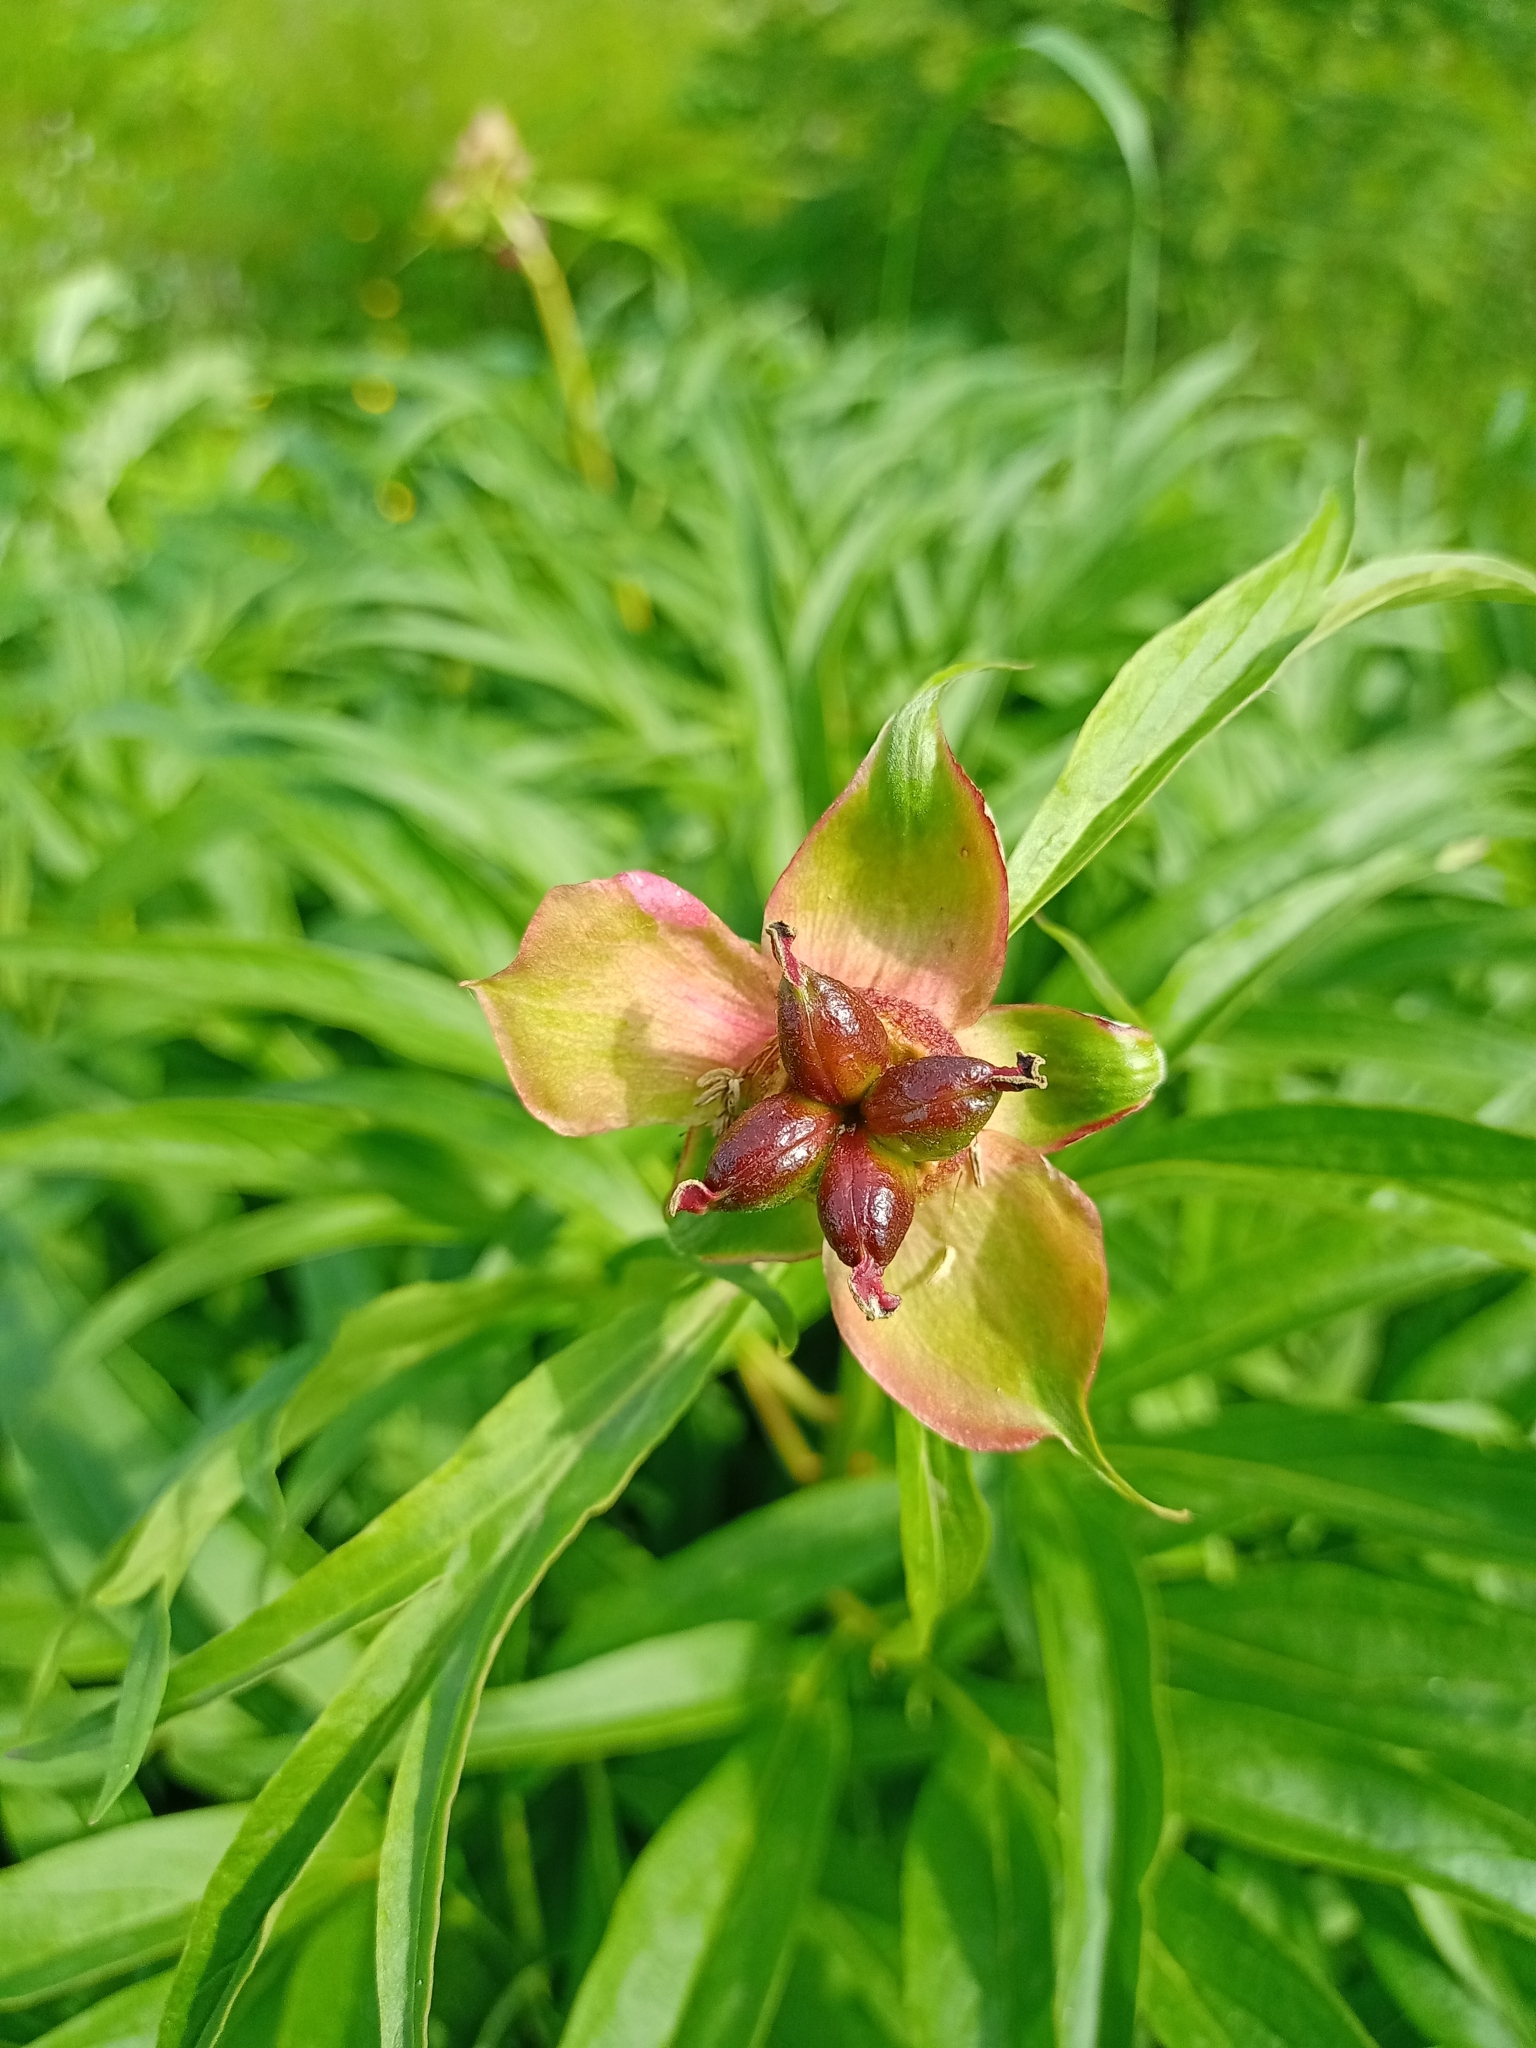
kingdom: Plantae
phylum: Tracheophyta
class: Magnoliopsida
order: Saxifragales
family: Paeoniaceae
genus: Paeonia
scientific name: Paeonia anomala
